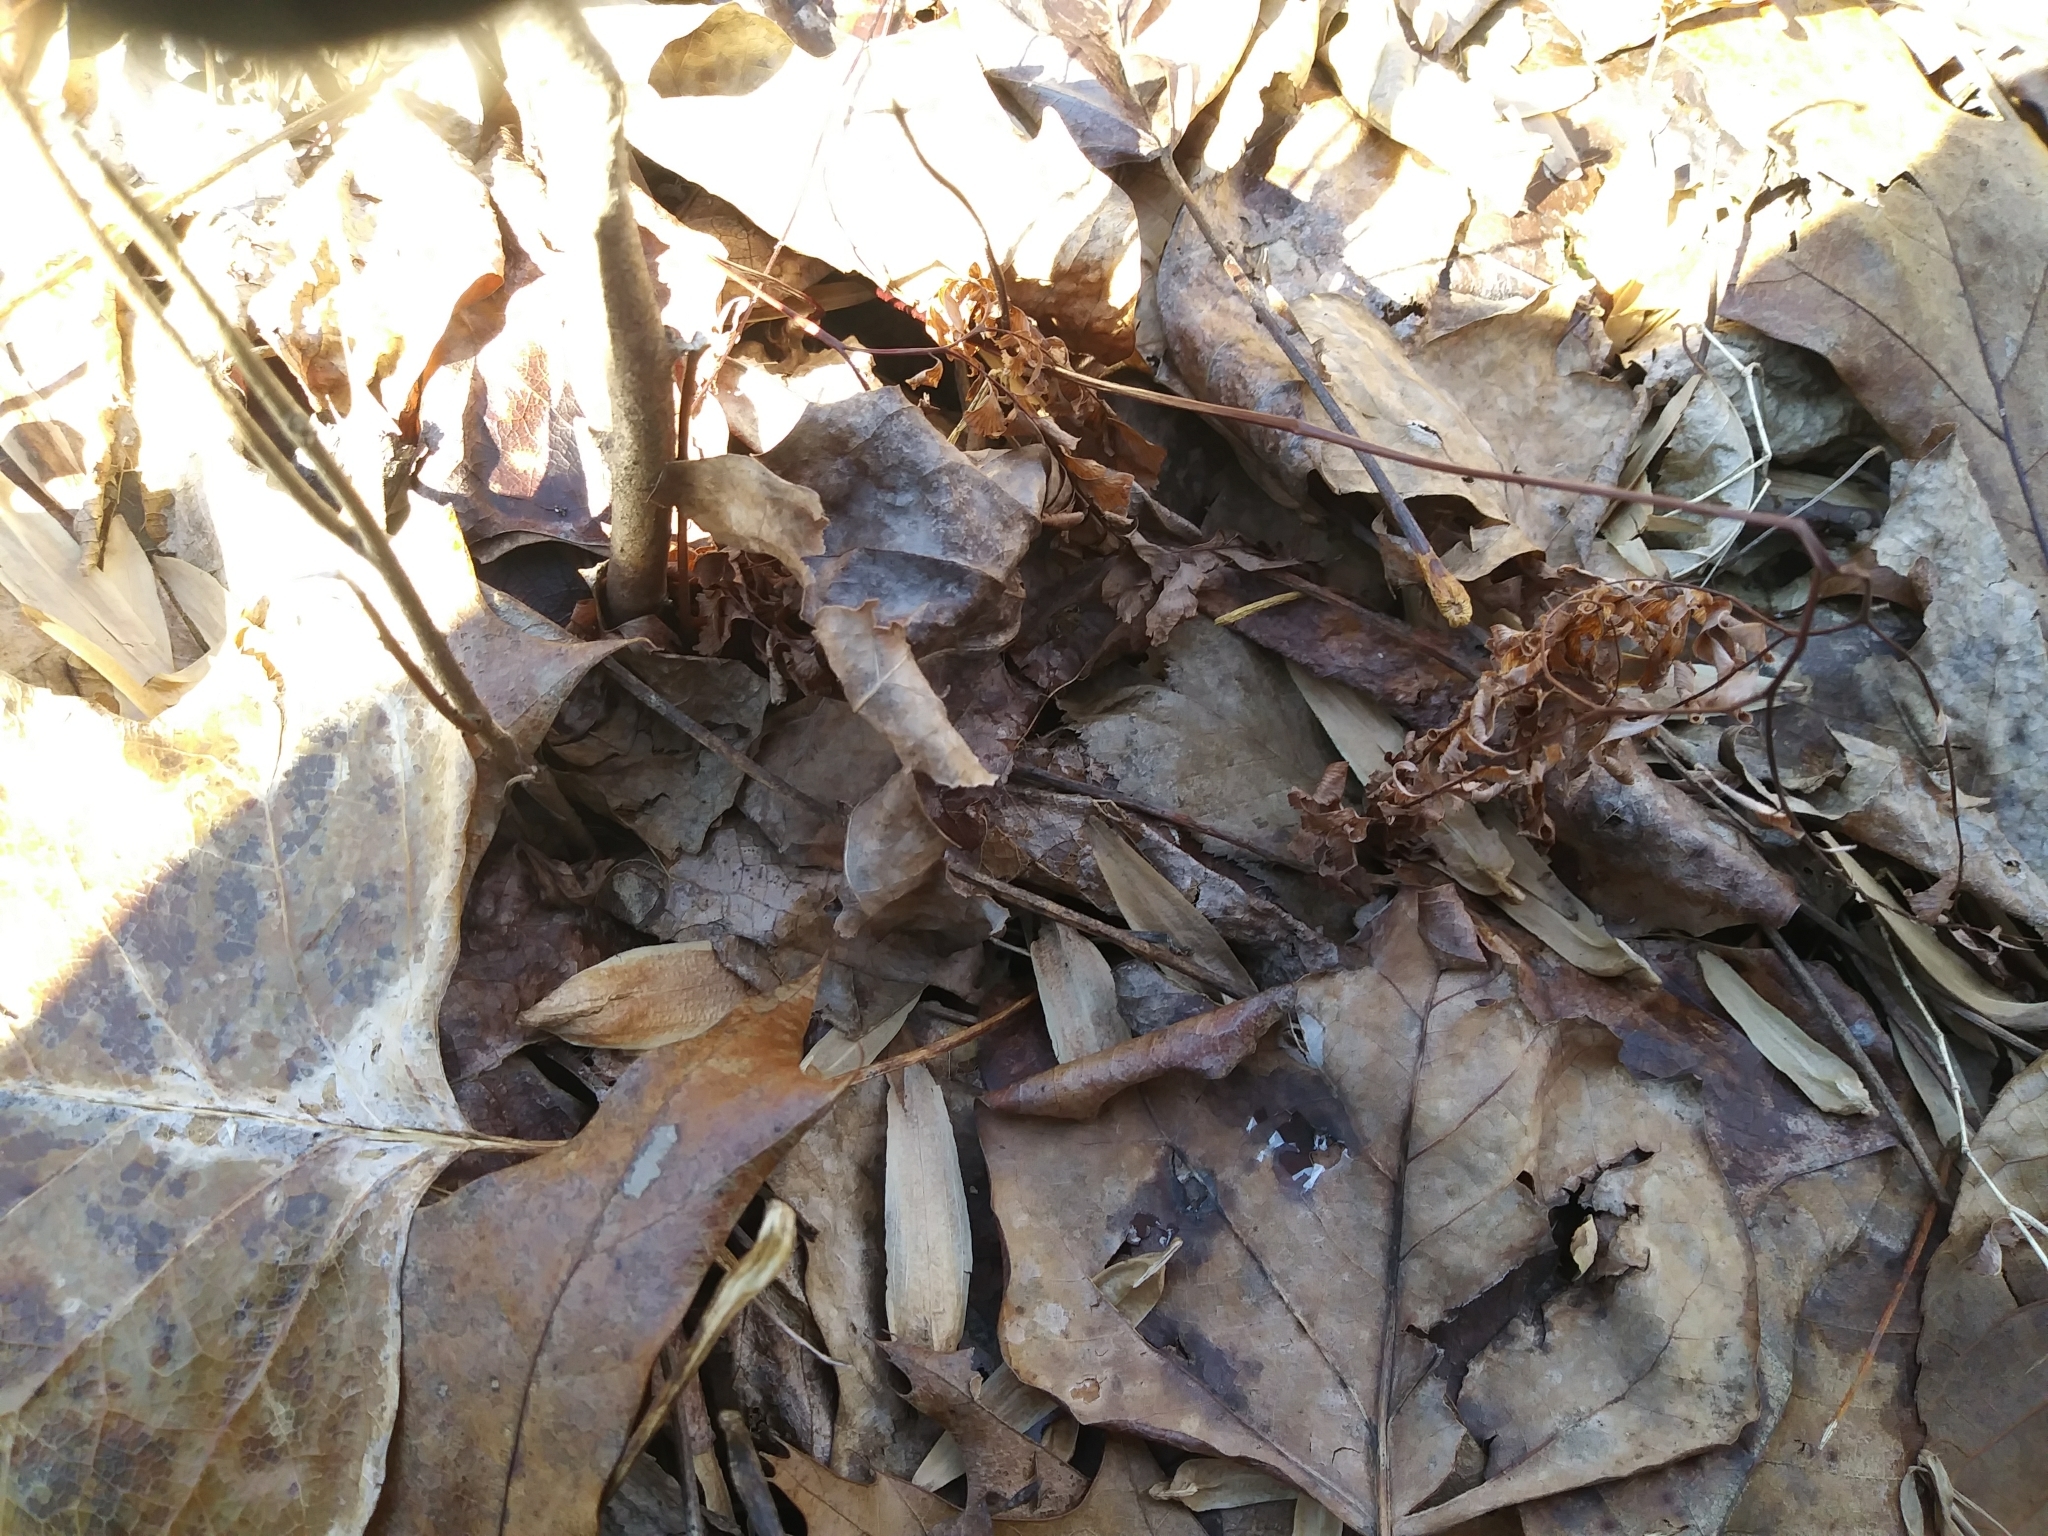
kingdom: Plantae
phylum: Tracheophyta
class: Polypodiopsida
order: Polypodiales
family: Pteridaceae
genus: Adiantum
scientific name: Adiantum pedatum
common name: Five-finger fern
